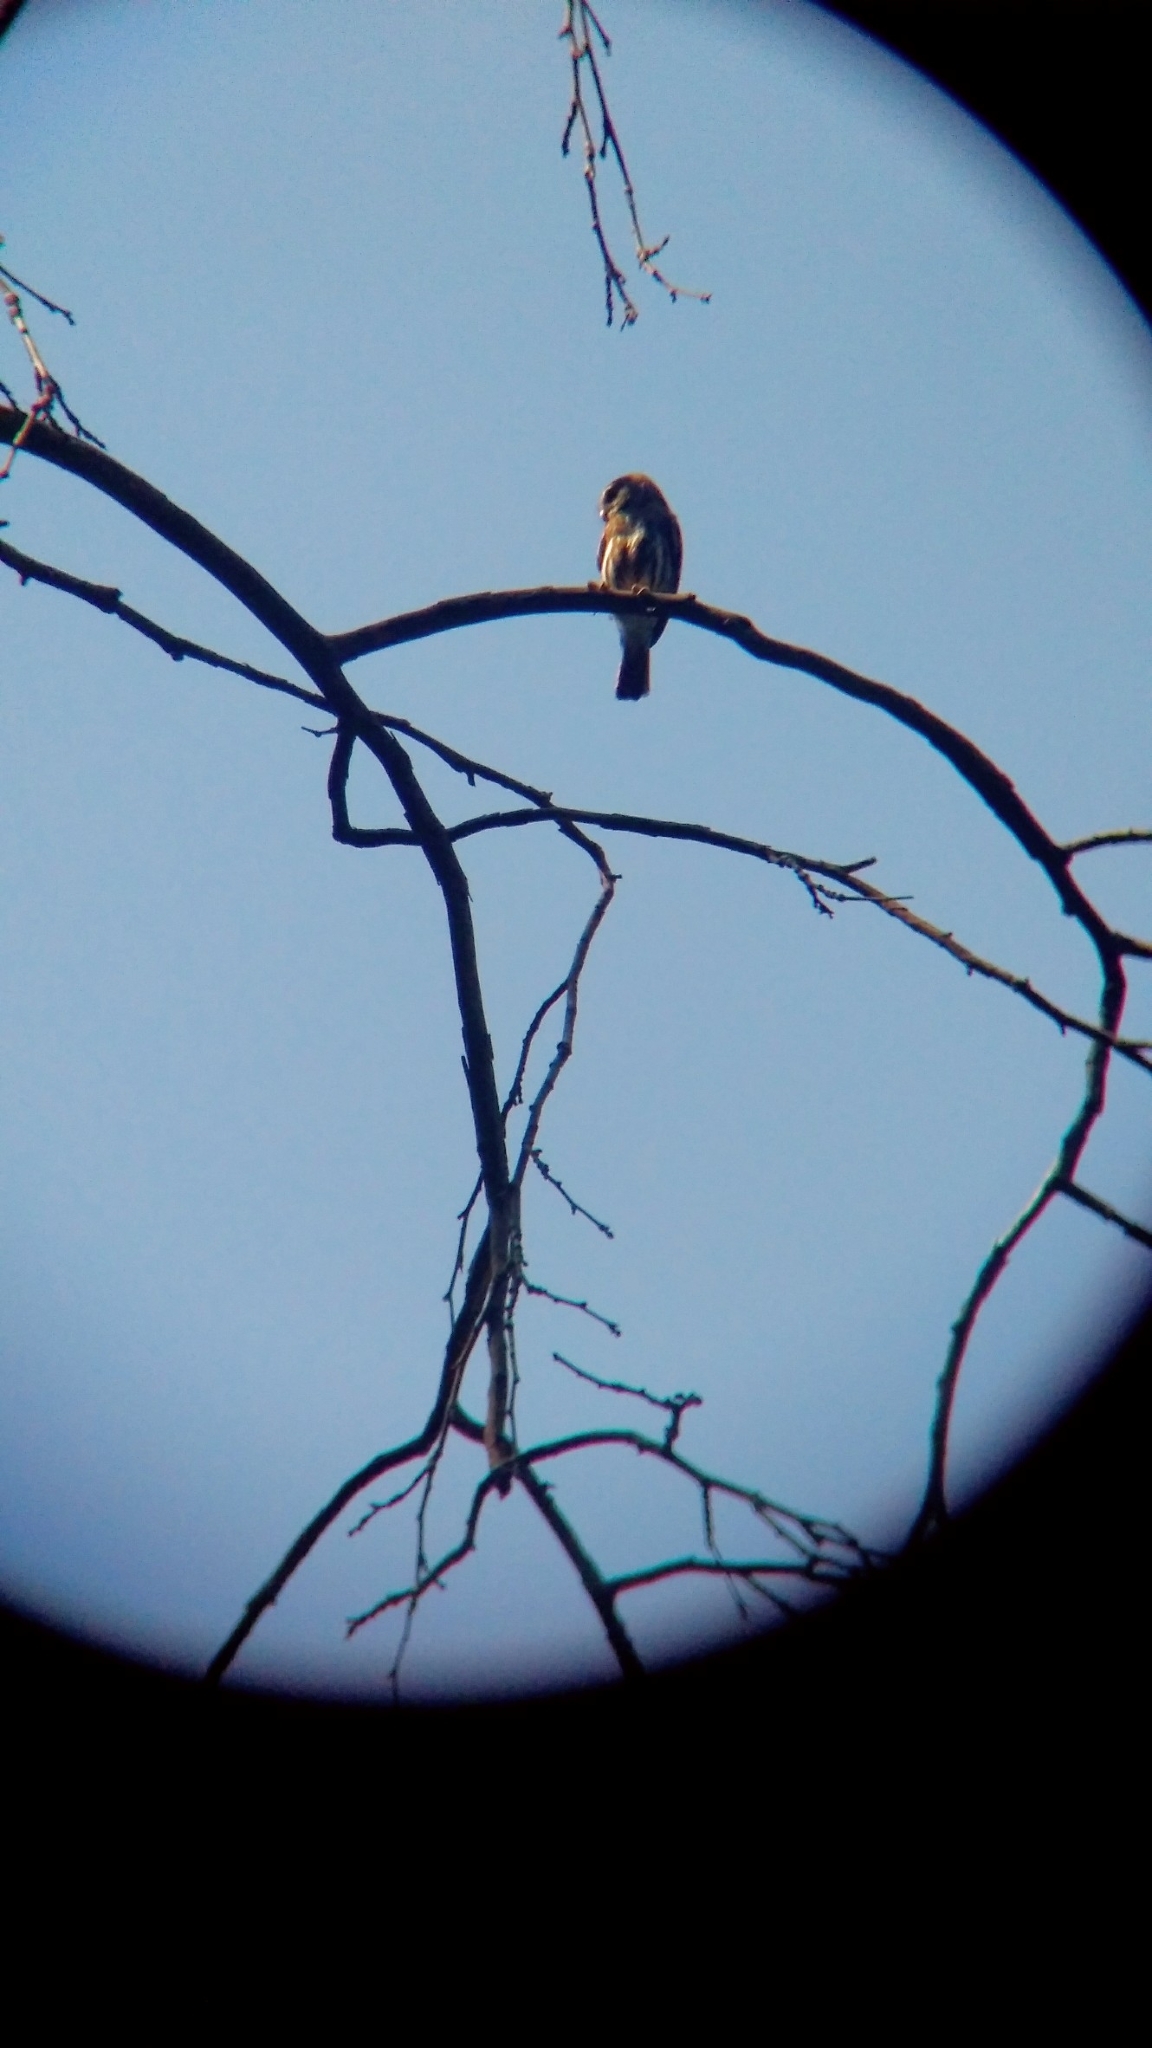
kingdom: Animalia
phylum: Chordata
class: Aves
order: Strigiformes
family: Strigidae
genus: Glaucidium
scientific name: Glaucidium brasilianum
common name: Ferruginous pygmy-owl
